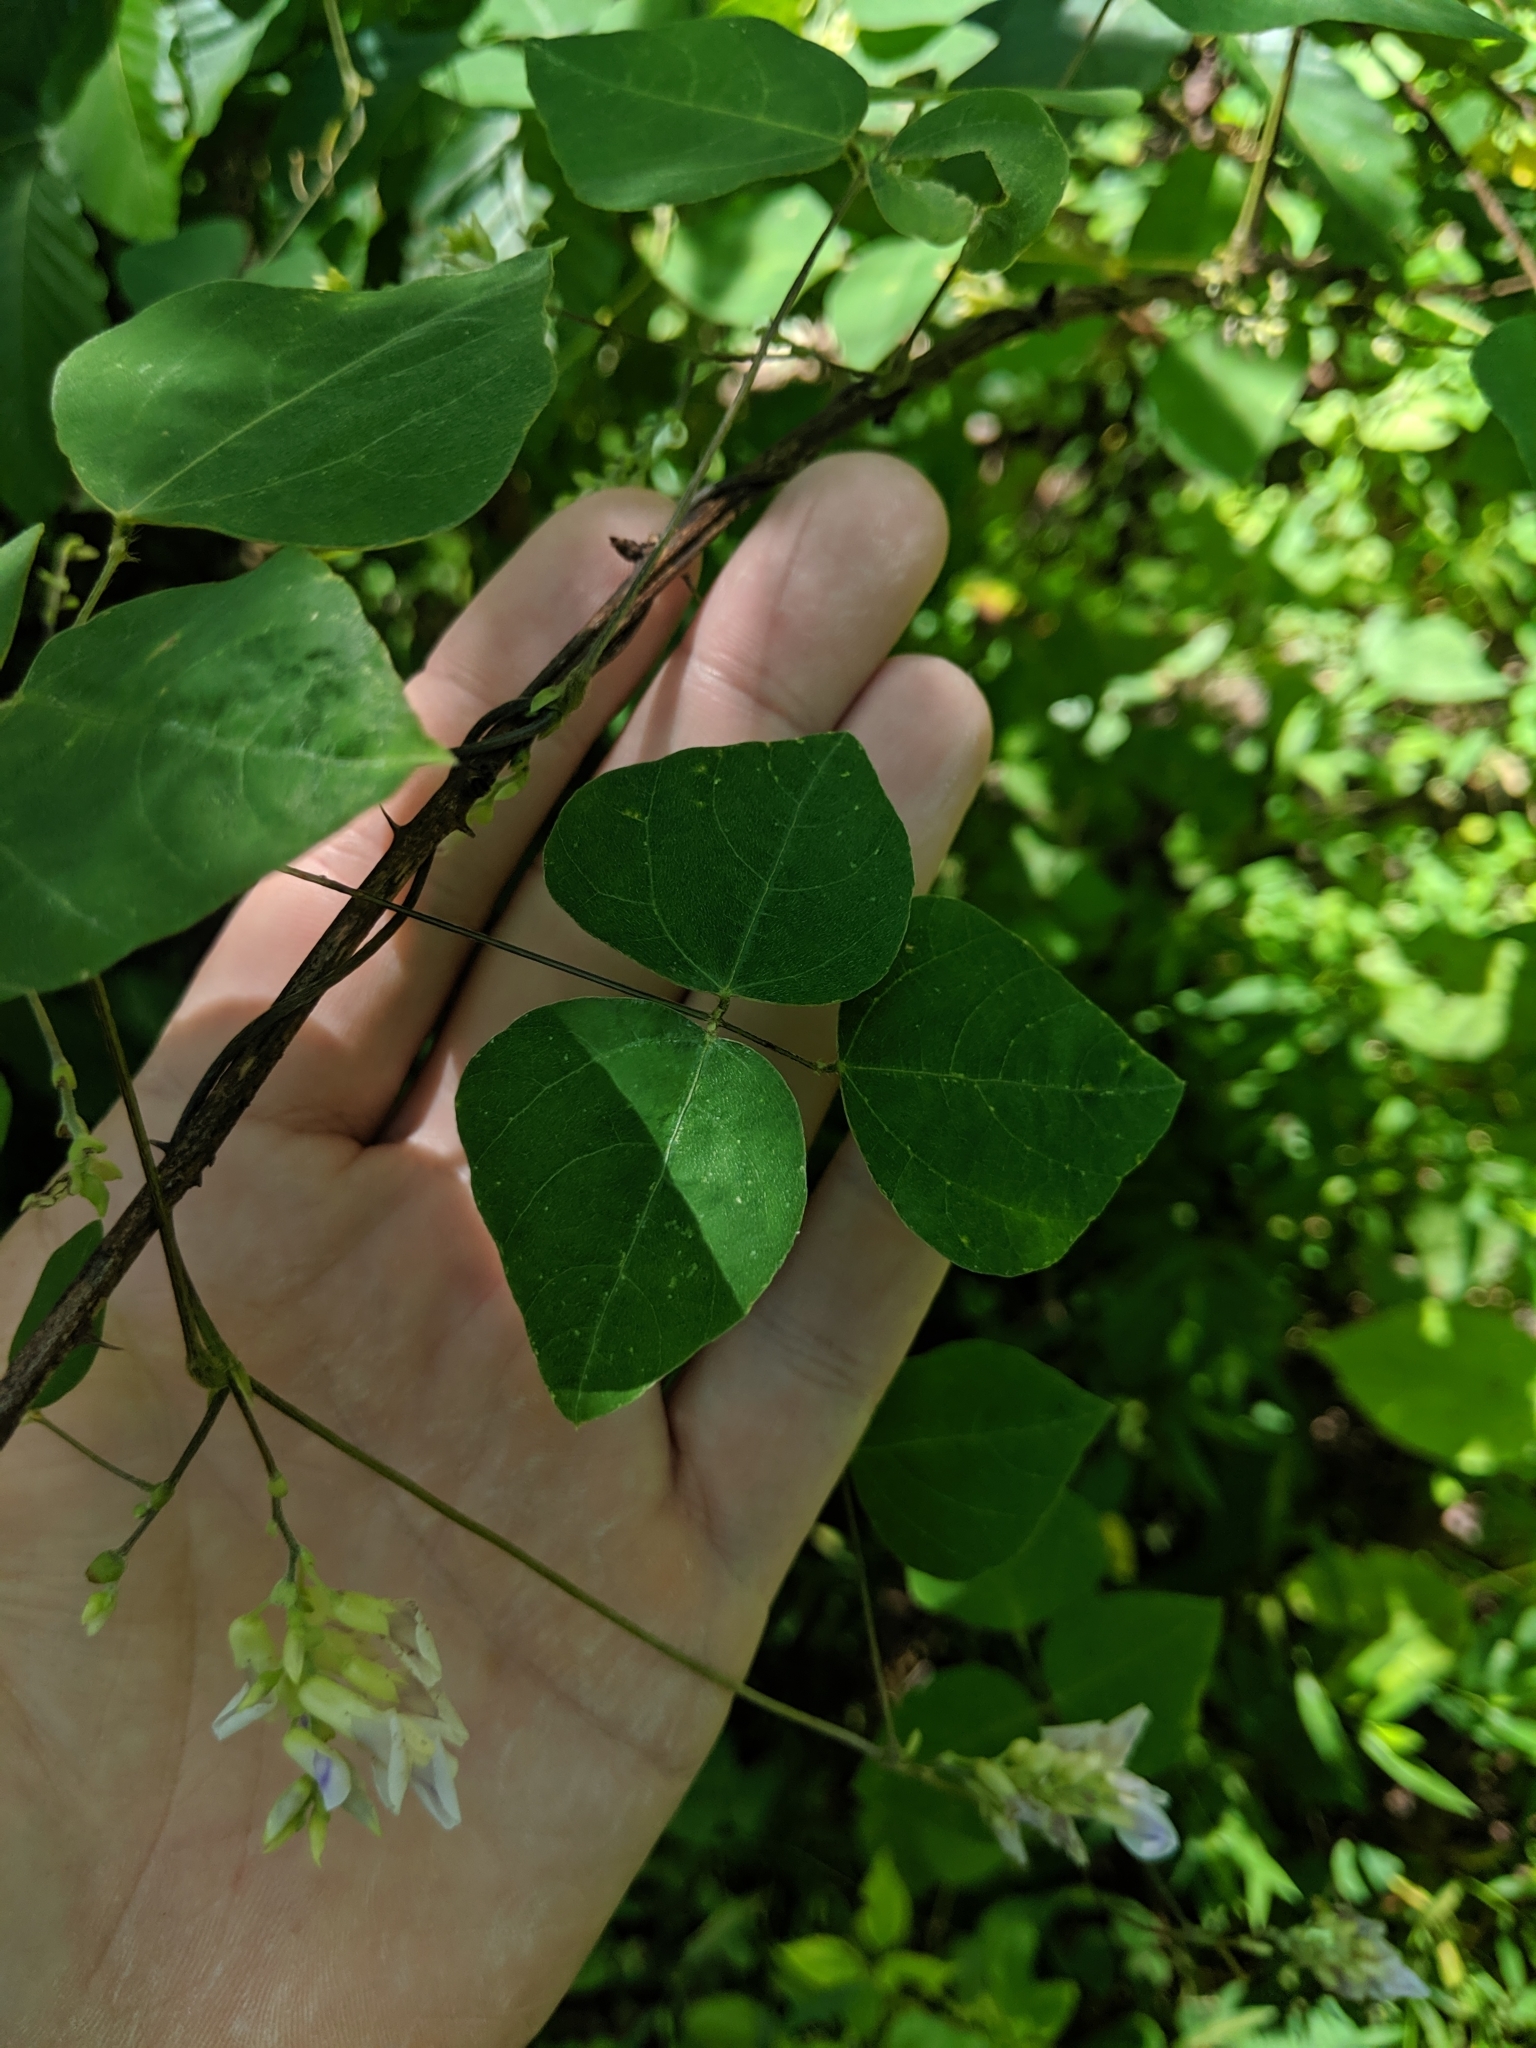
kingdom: Plantae
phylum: Tracheophyta
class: Magnoliopsida
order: Fabales
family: Fabaceae
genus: Amphicarpaea
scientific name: Amphicarpaea bracteata
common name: American hog peanut
